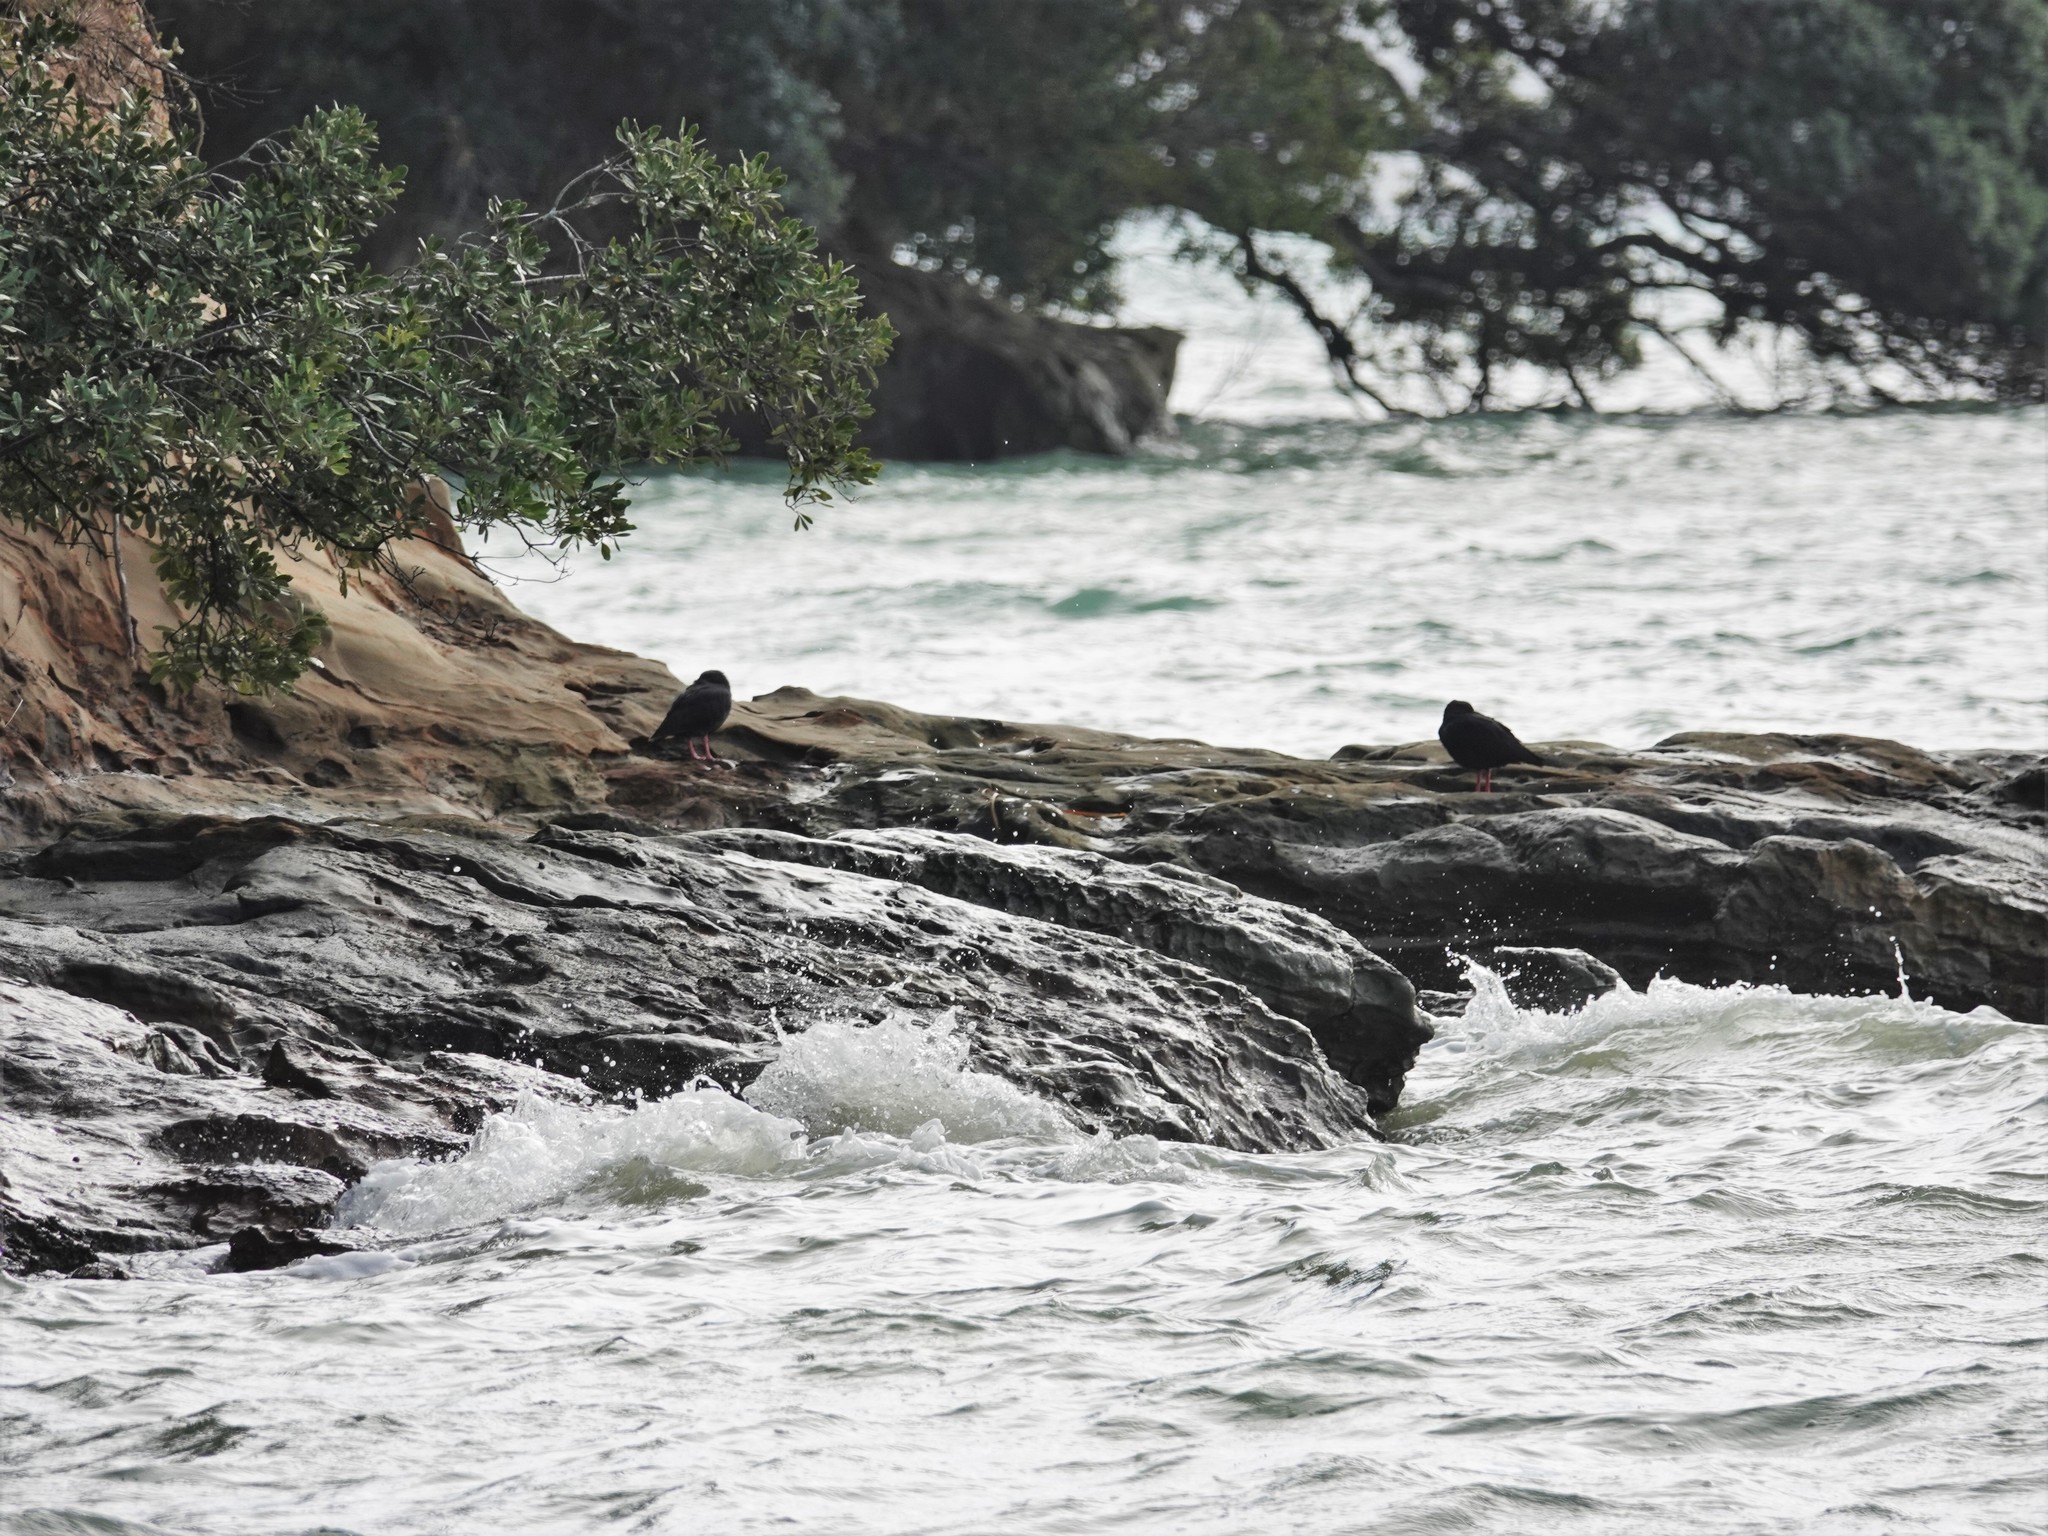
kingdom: Animalia
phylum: Chordata
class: Aves
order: Charadriiformes
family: Haematopodidae
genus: Haematopus
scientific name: Haematopus unicolor
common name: Variable oystercatcher
